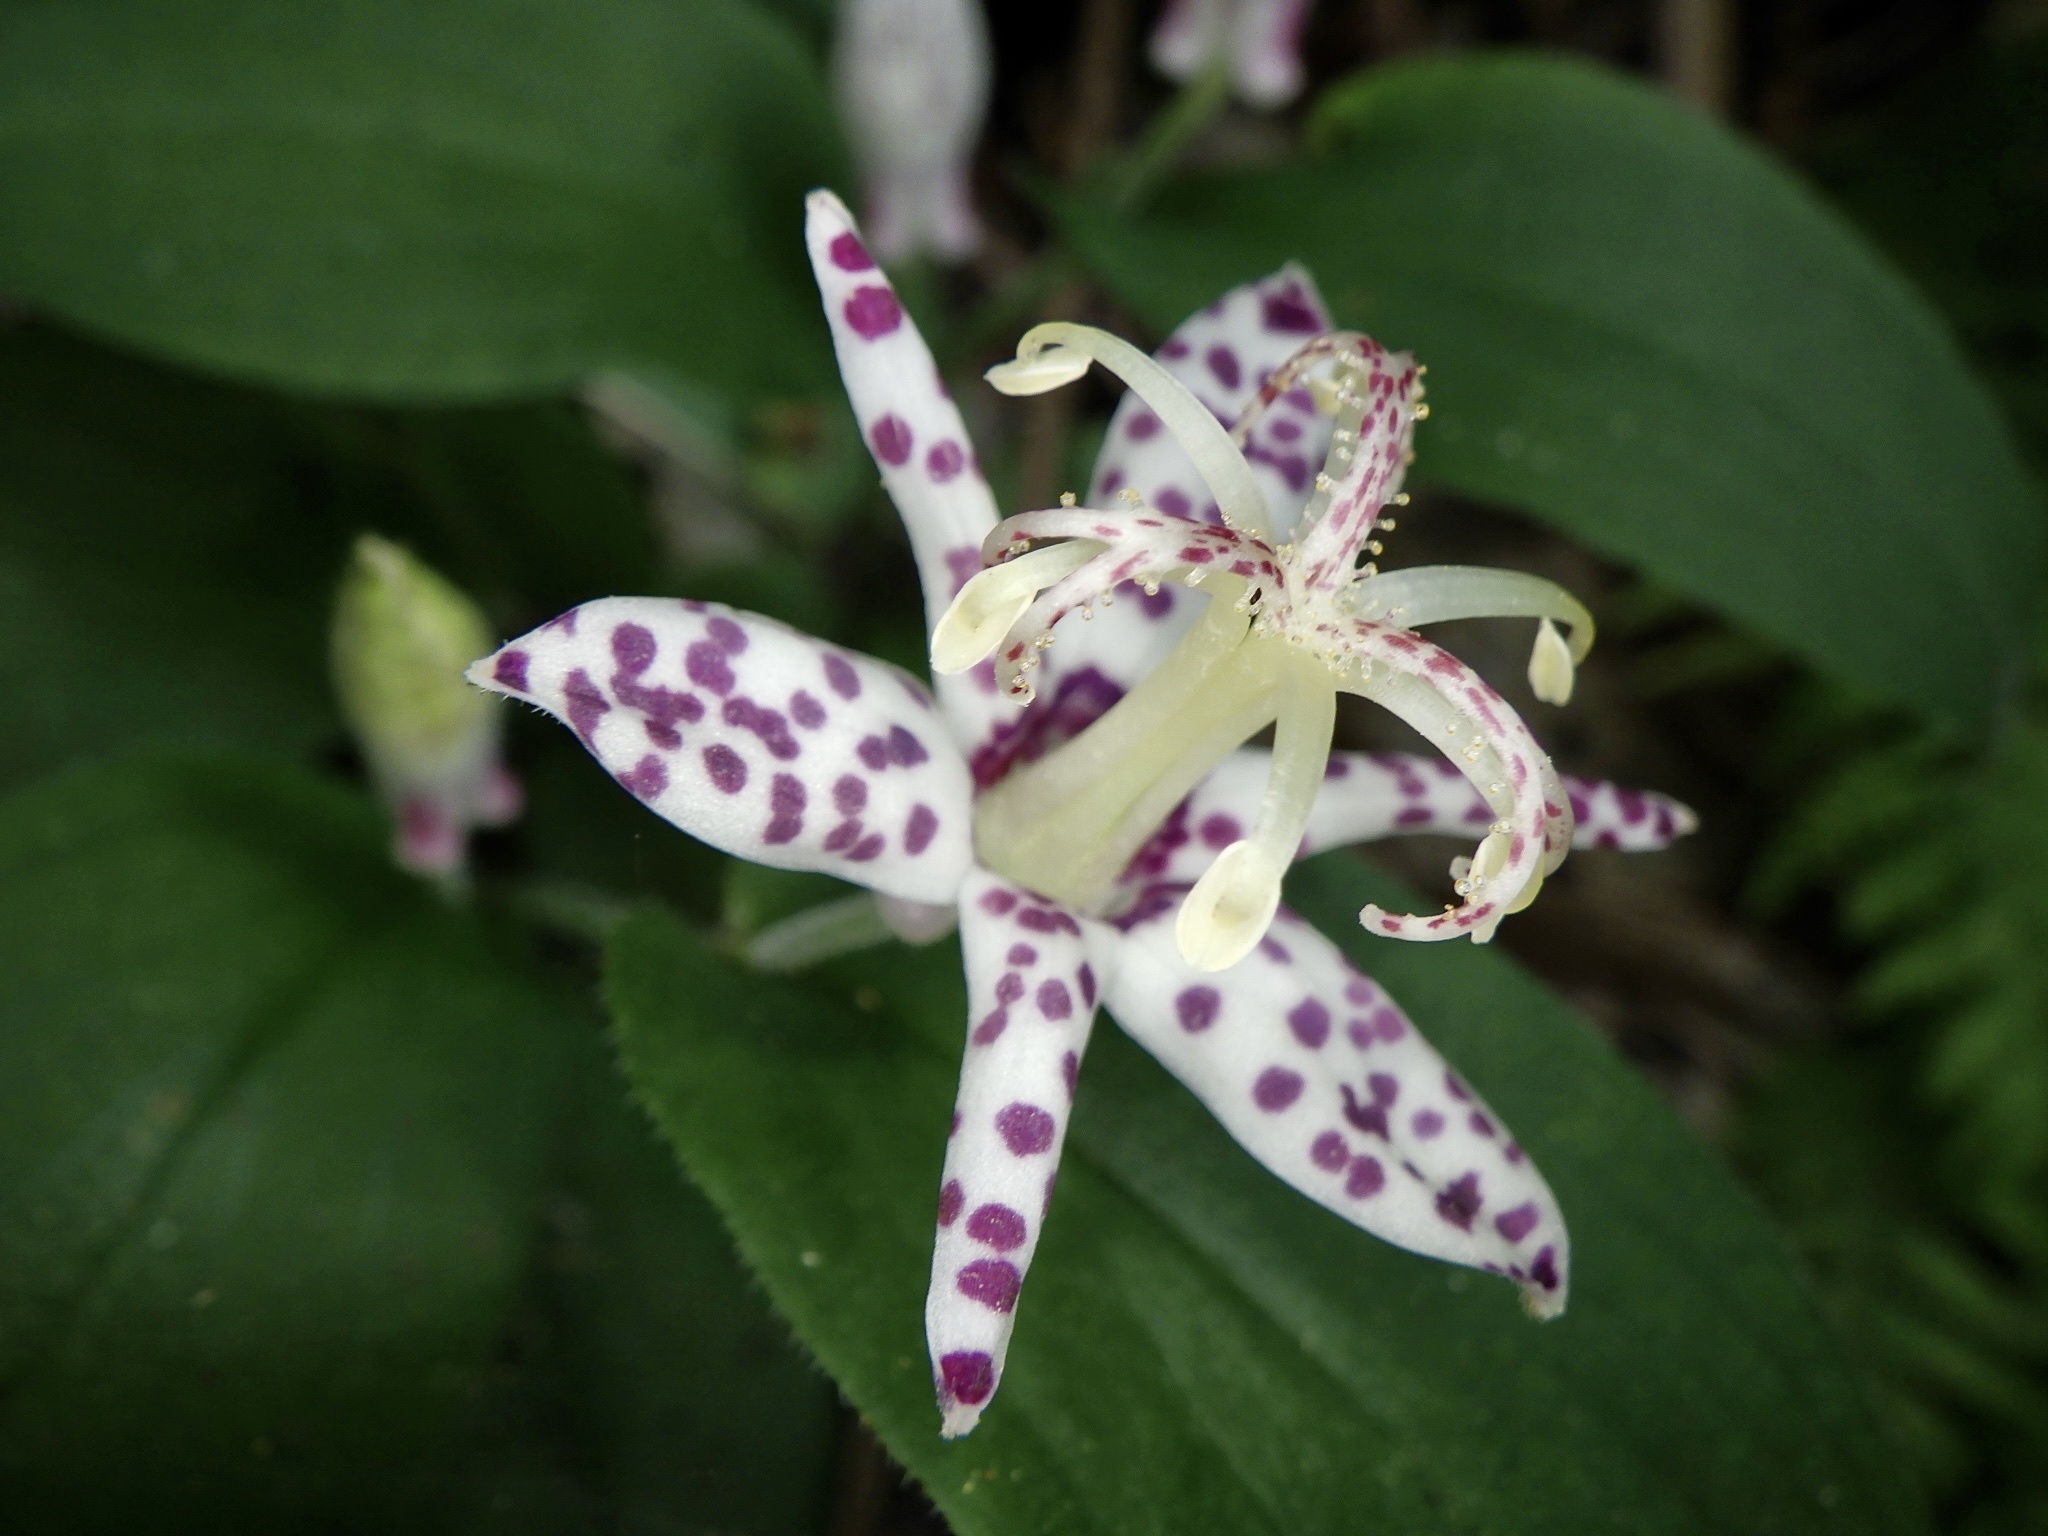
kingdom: Plantae
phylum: Tracheophyta
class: Liliopsida
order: Liliales
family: Liliaceae
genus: Tricyrtis
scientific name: Tricyrtis affinis
